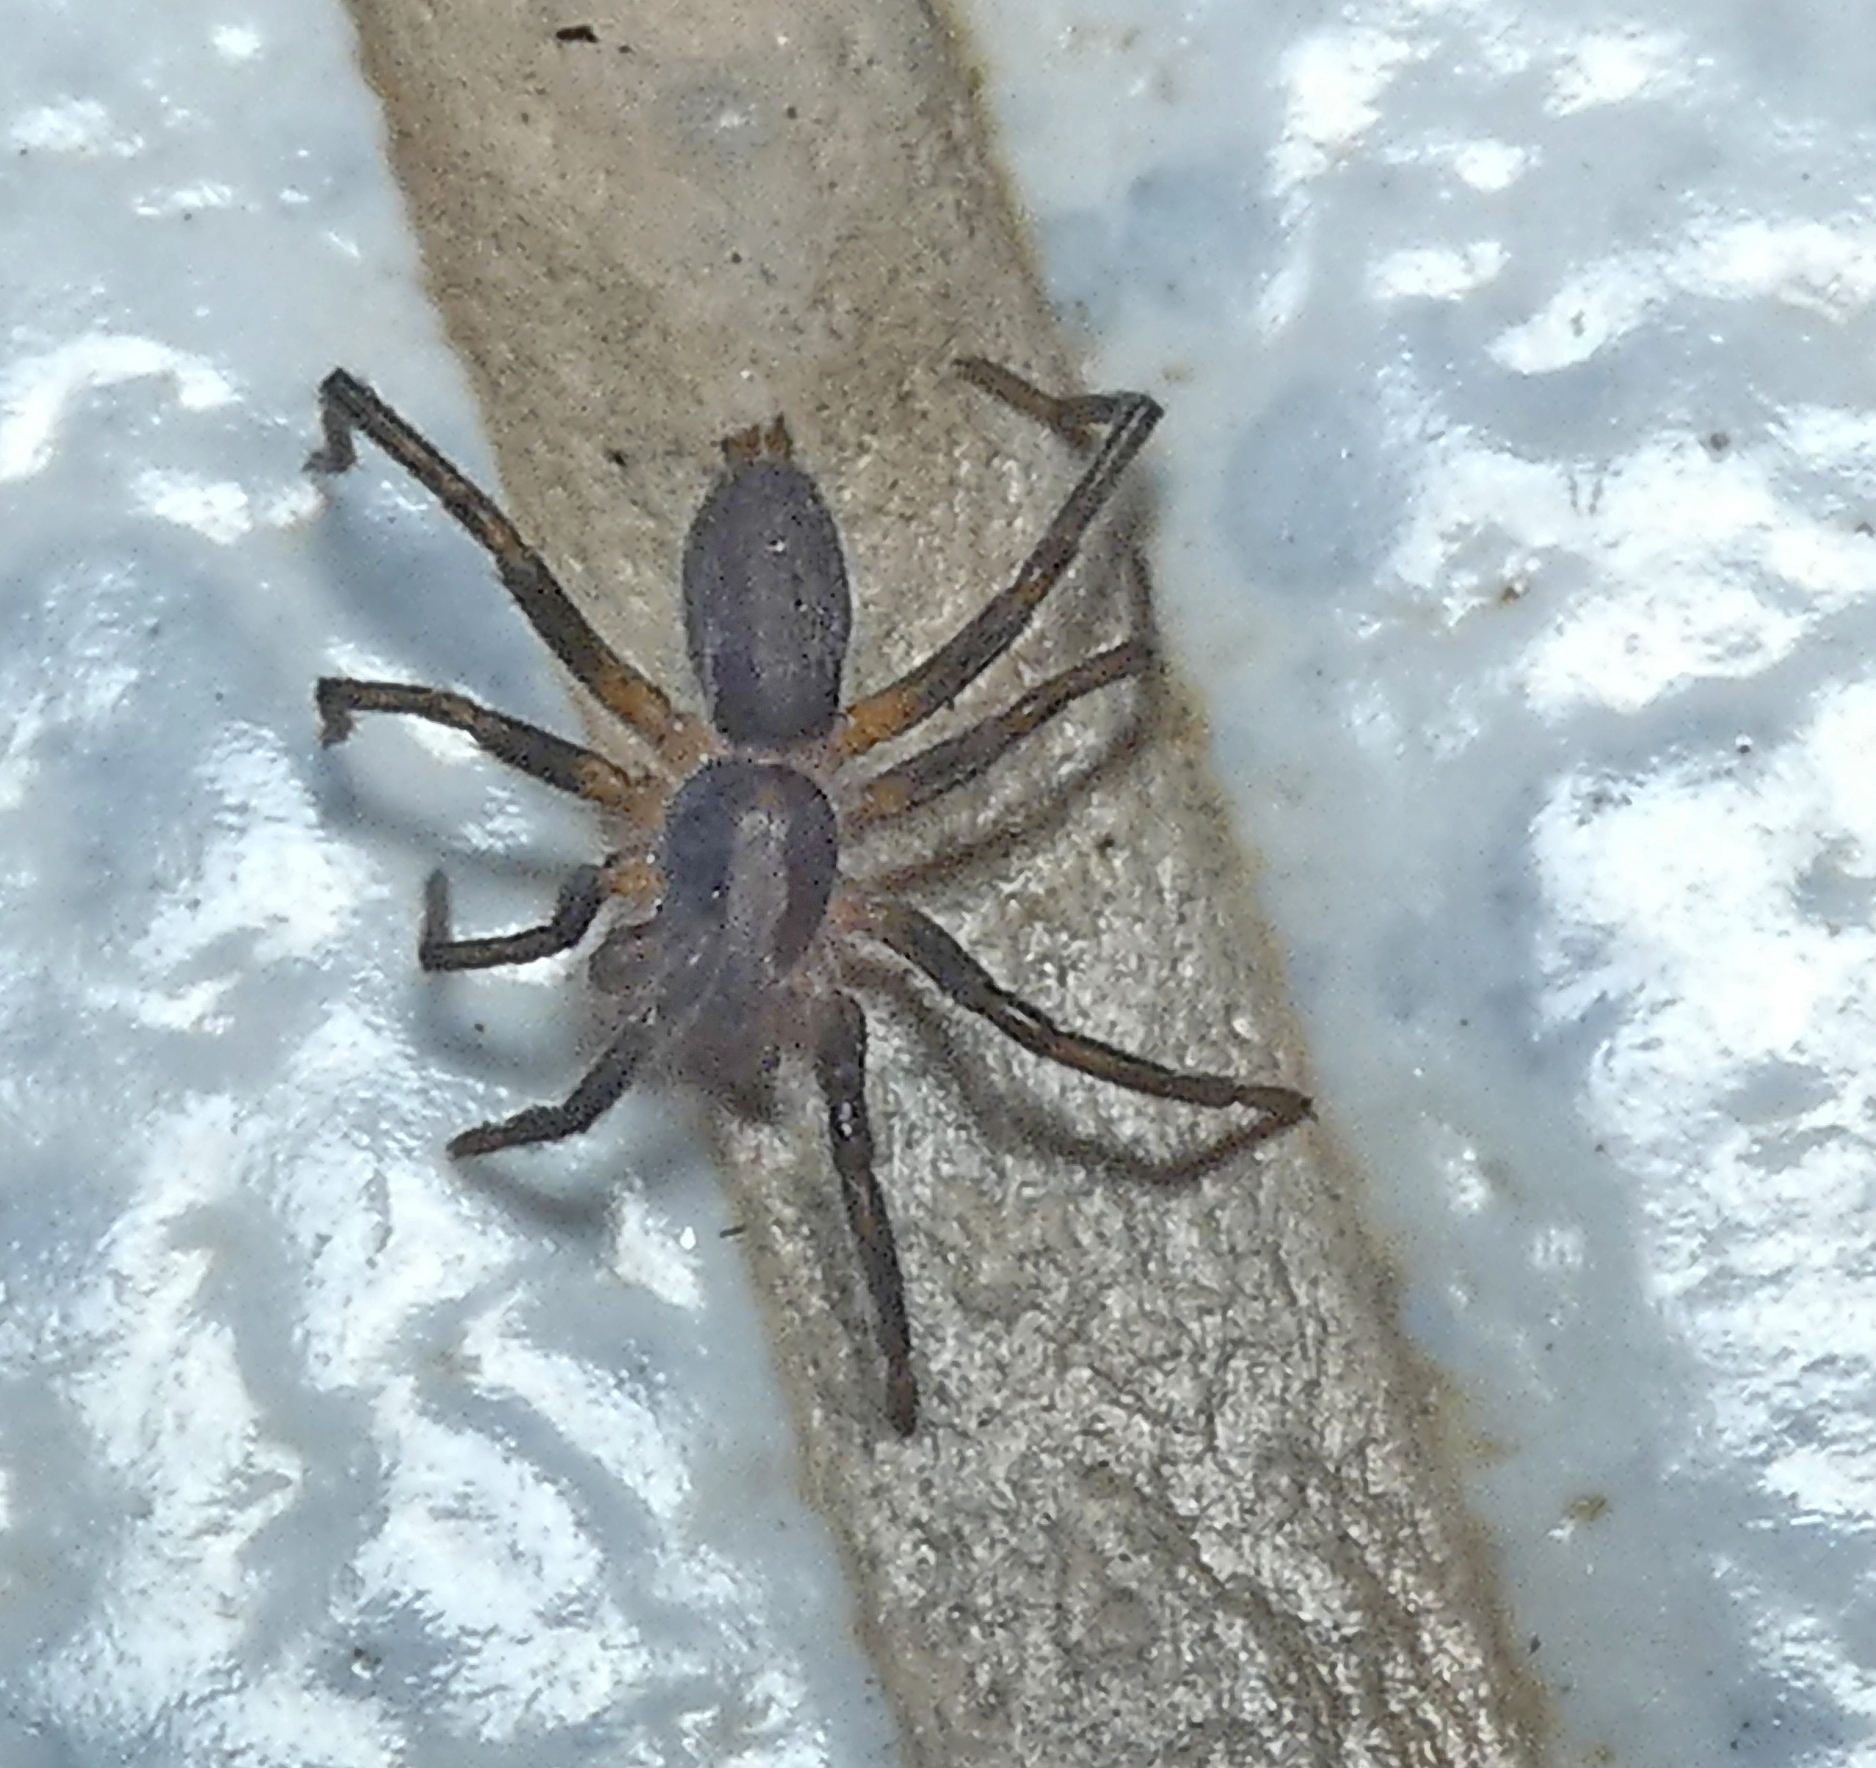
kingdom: Animalia
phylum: Arthropoda
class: Arachnida
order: Araneae
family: Miturgidae
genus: Teminius
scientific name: Teminius insularis
